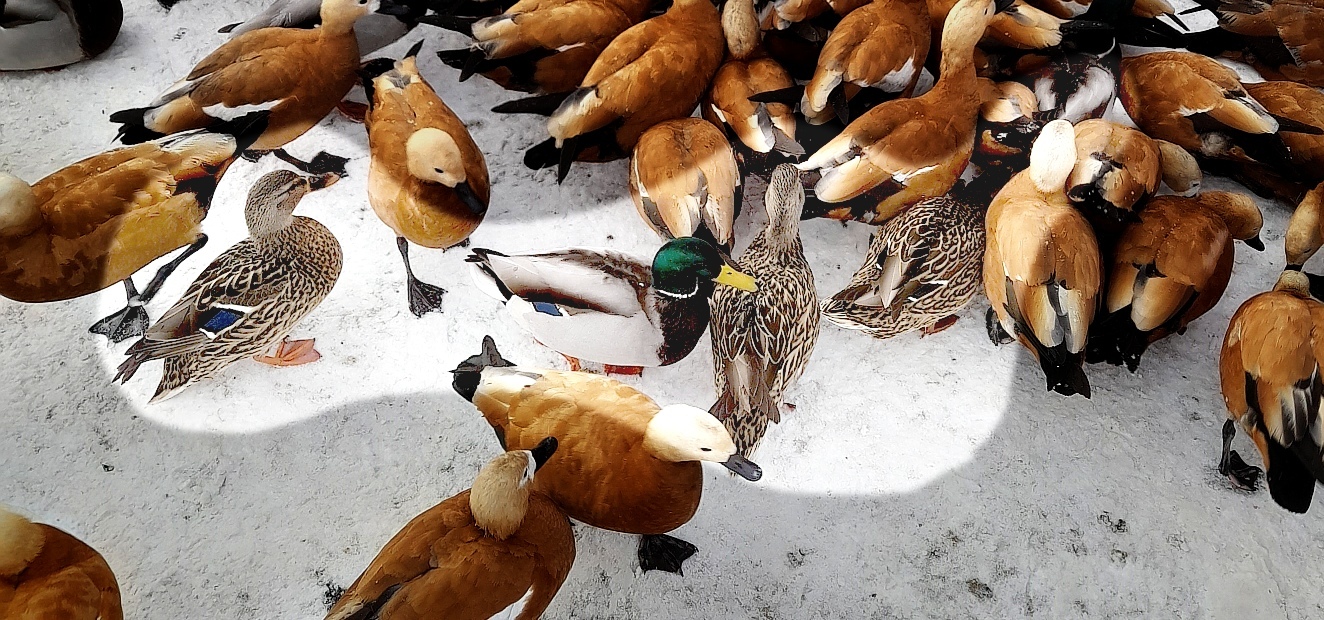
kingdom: Animalia
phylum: Chordata
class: Aves
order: Anseriformes
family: Anatidae
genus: Anas
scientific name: Anas platyrhynchos
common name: Mallard
